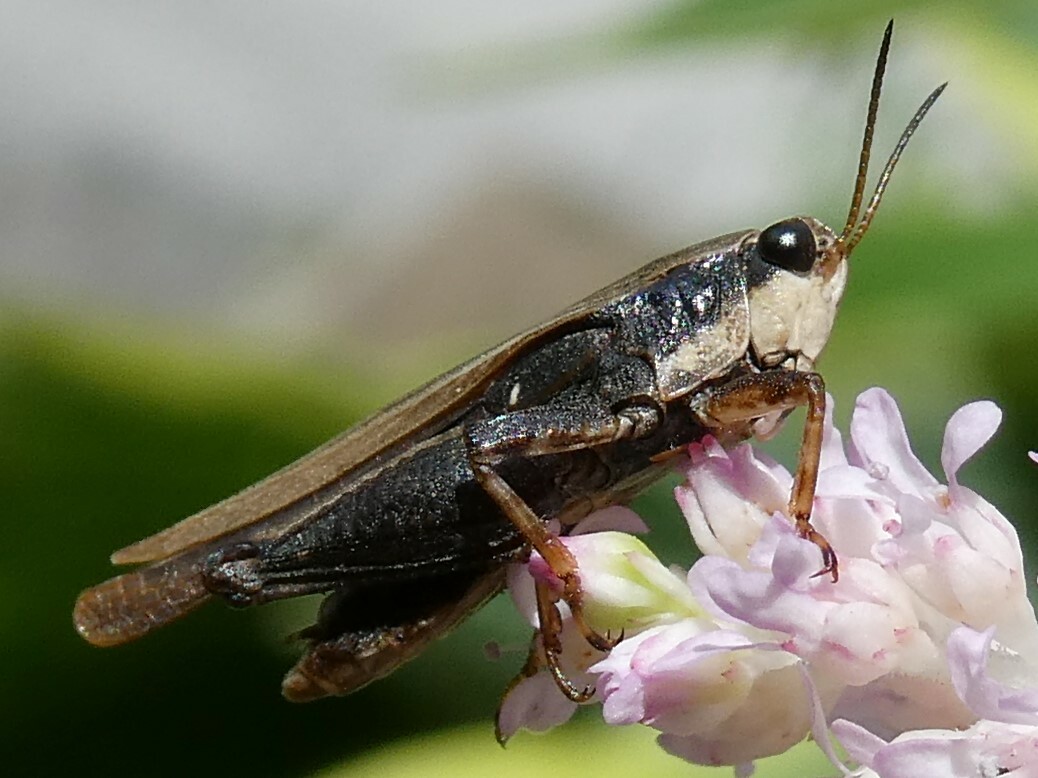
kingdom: Animalia
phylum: Arthropoda
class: Insecta
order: Orthoptera
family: Tetrigidae
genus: Tettigidea
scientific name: Tettigidea laterale
